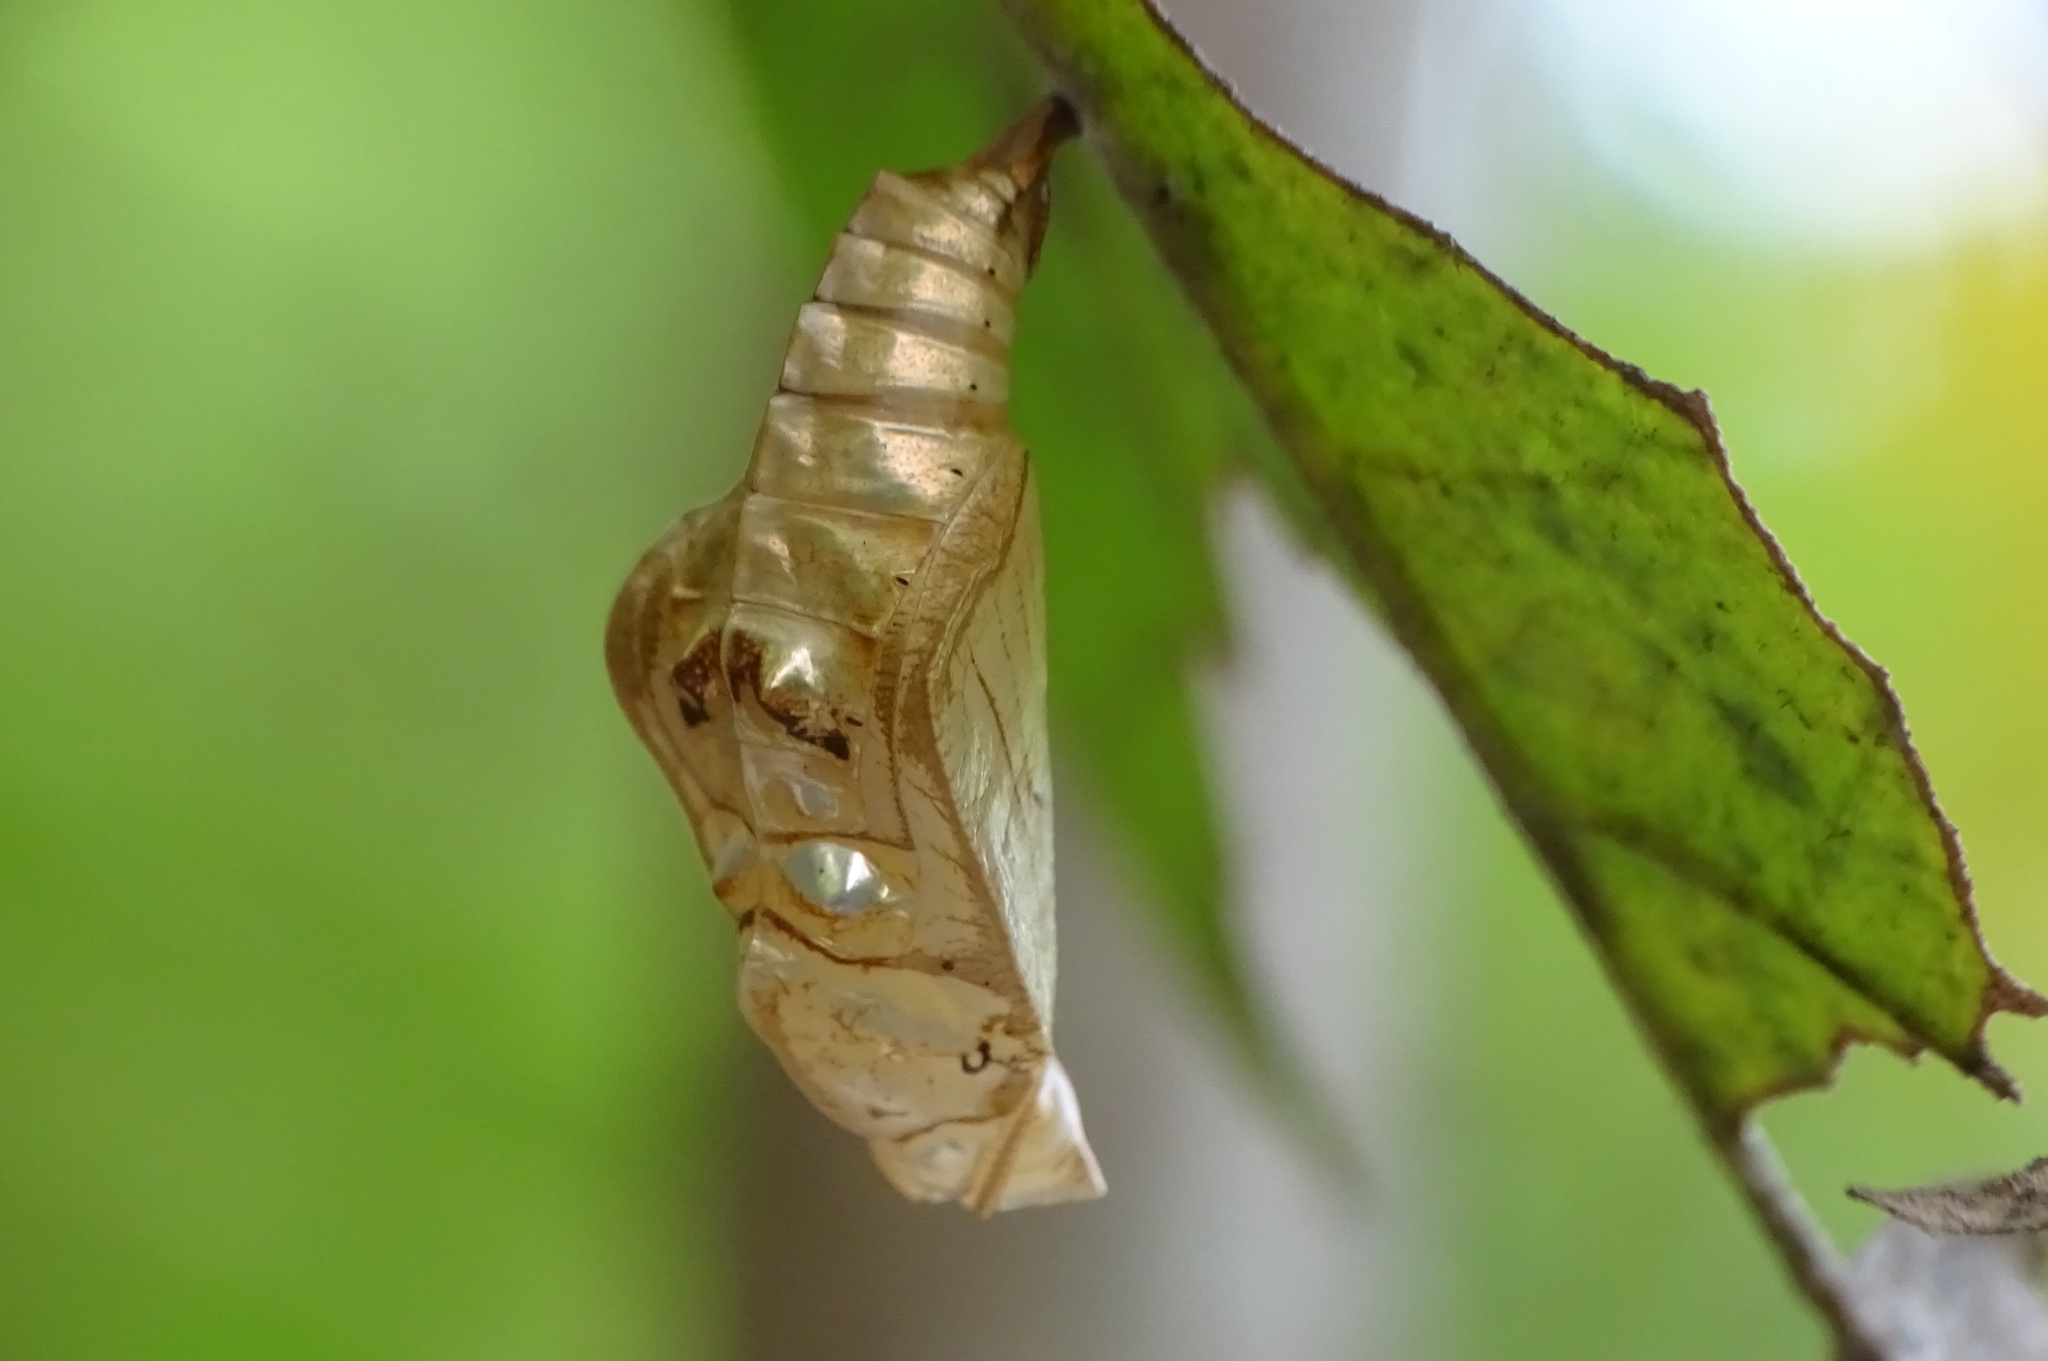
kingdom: Animalia
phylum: Arthropoda
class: Insecta
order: Lepidoptera
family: Nymphalidae
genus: Neptis
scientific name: Neptis hylas
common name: Common sailer
